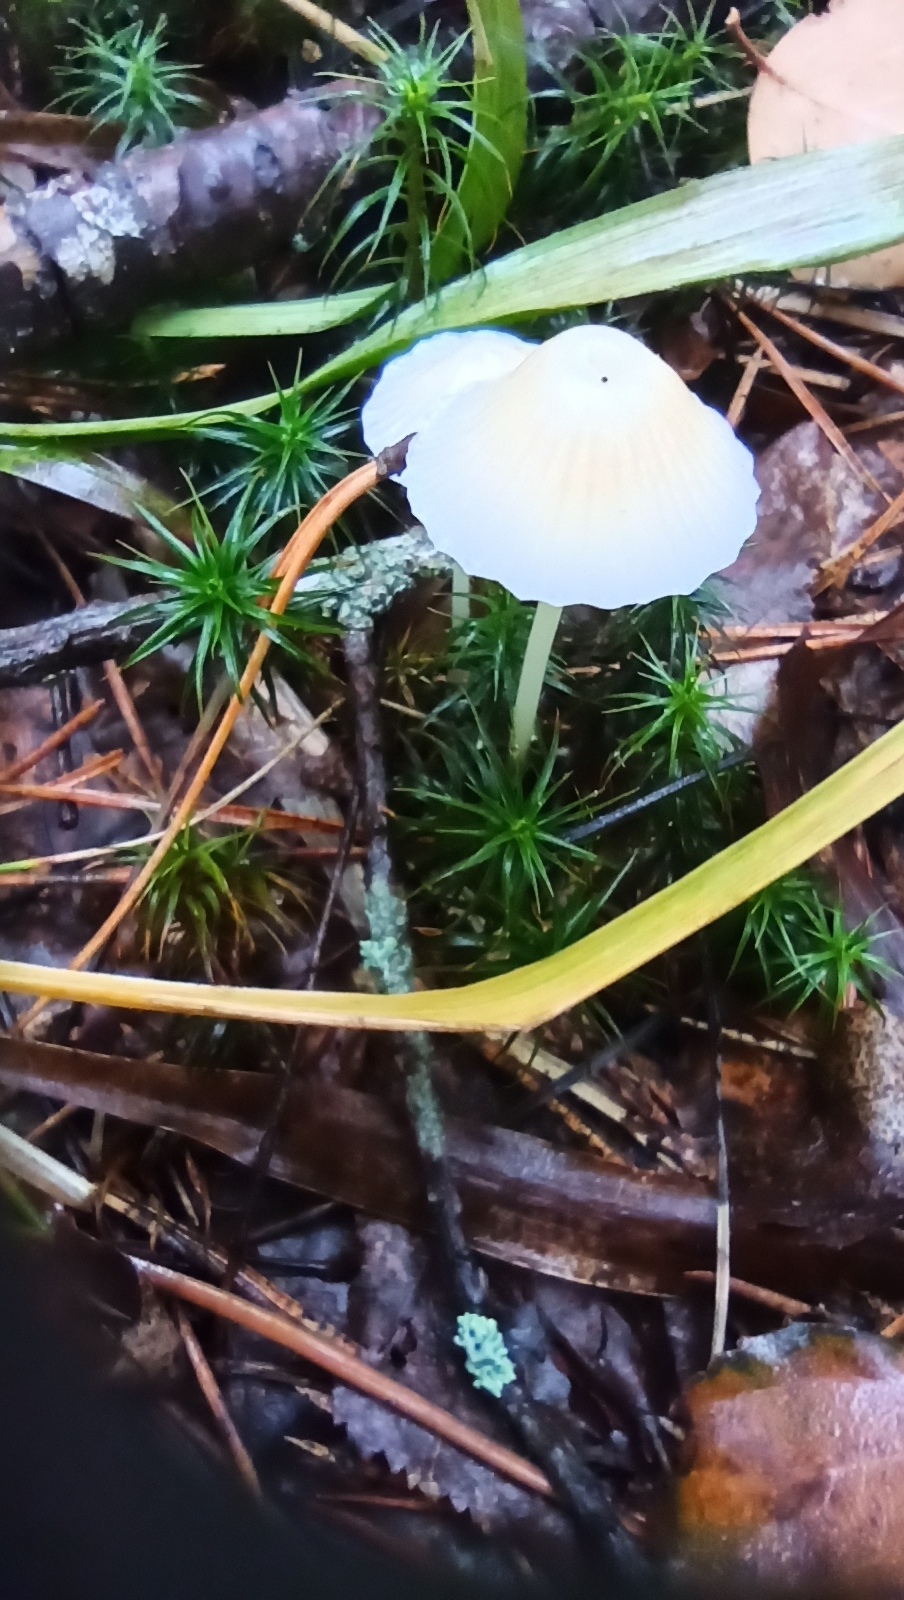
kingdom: Fungi
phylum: Basidiomycota
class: Agaricomycetes
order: Agaricales
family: Mycenaceae
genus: Mycena
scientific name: Mycena epipterygia
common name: Yellowleg bonnet
